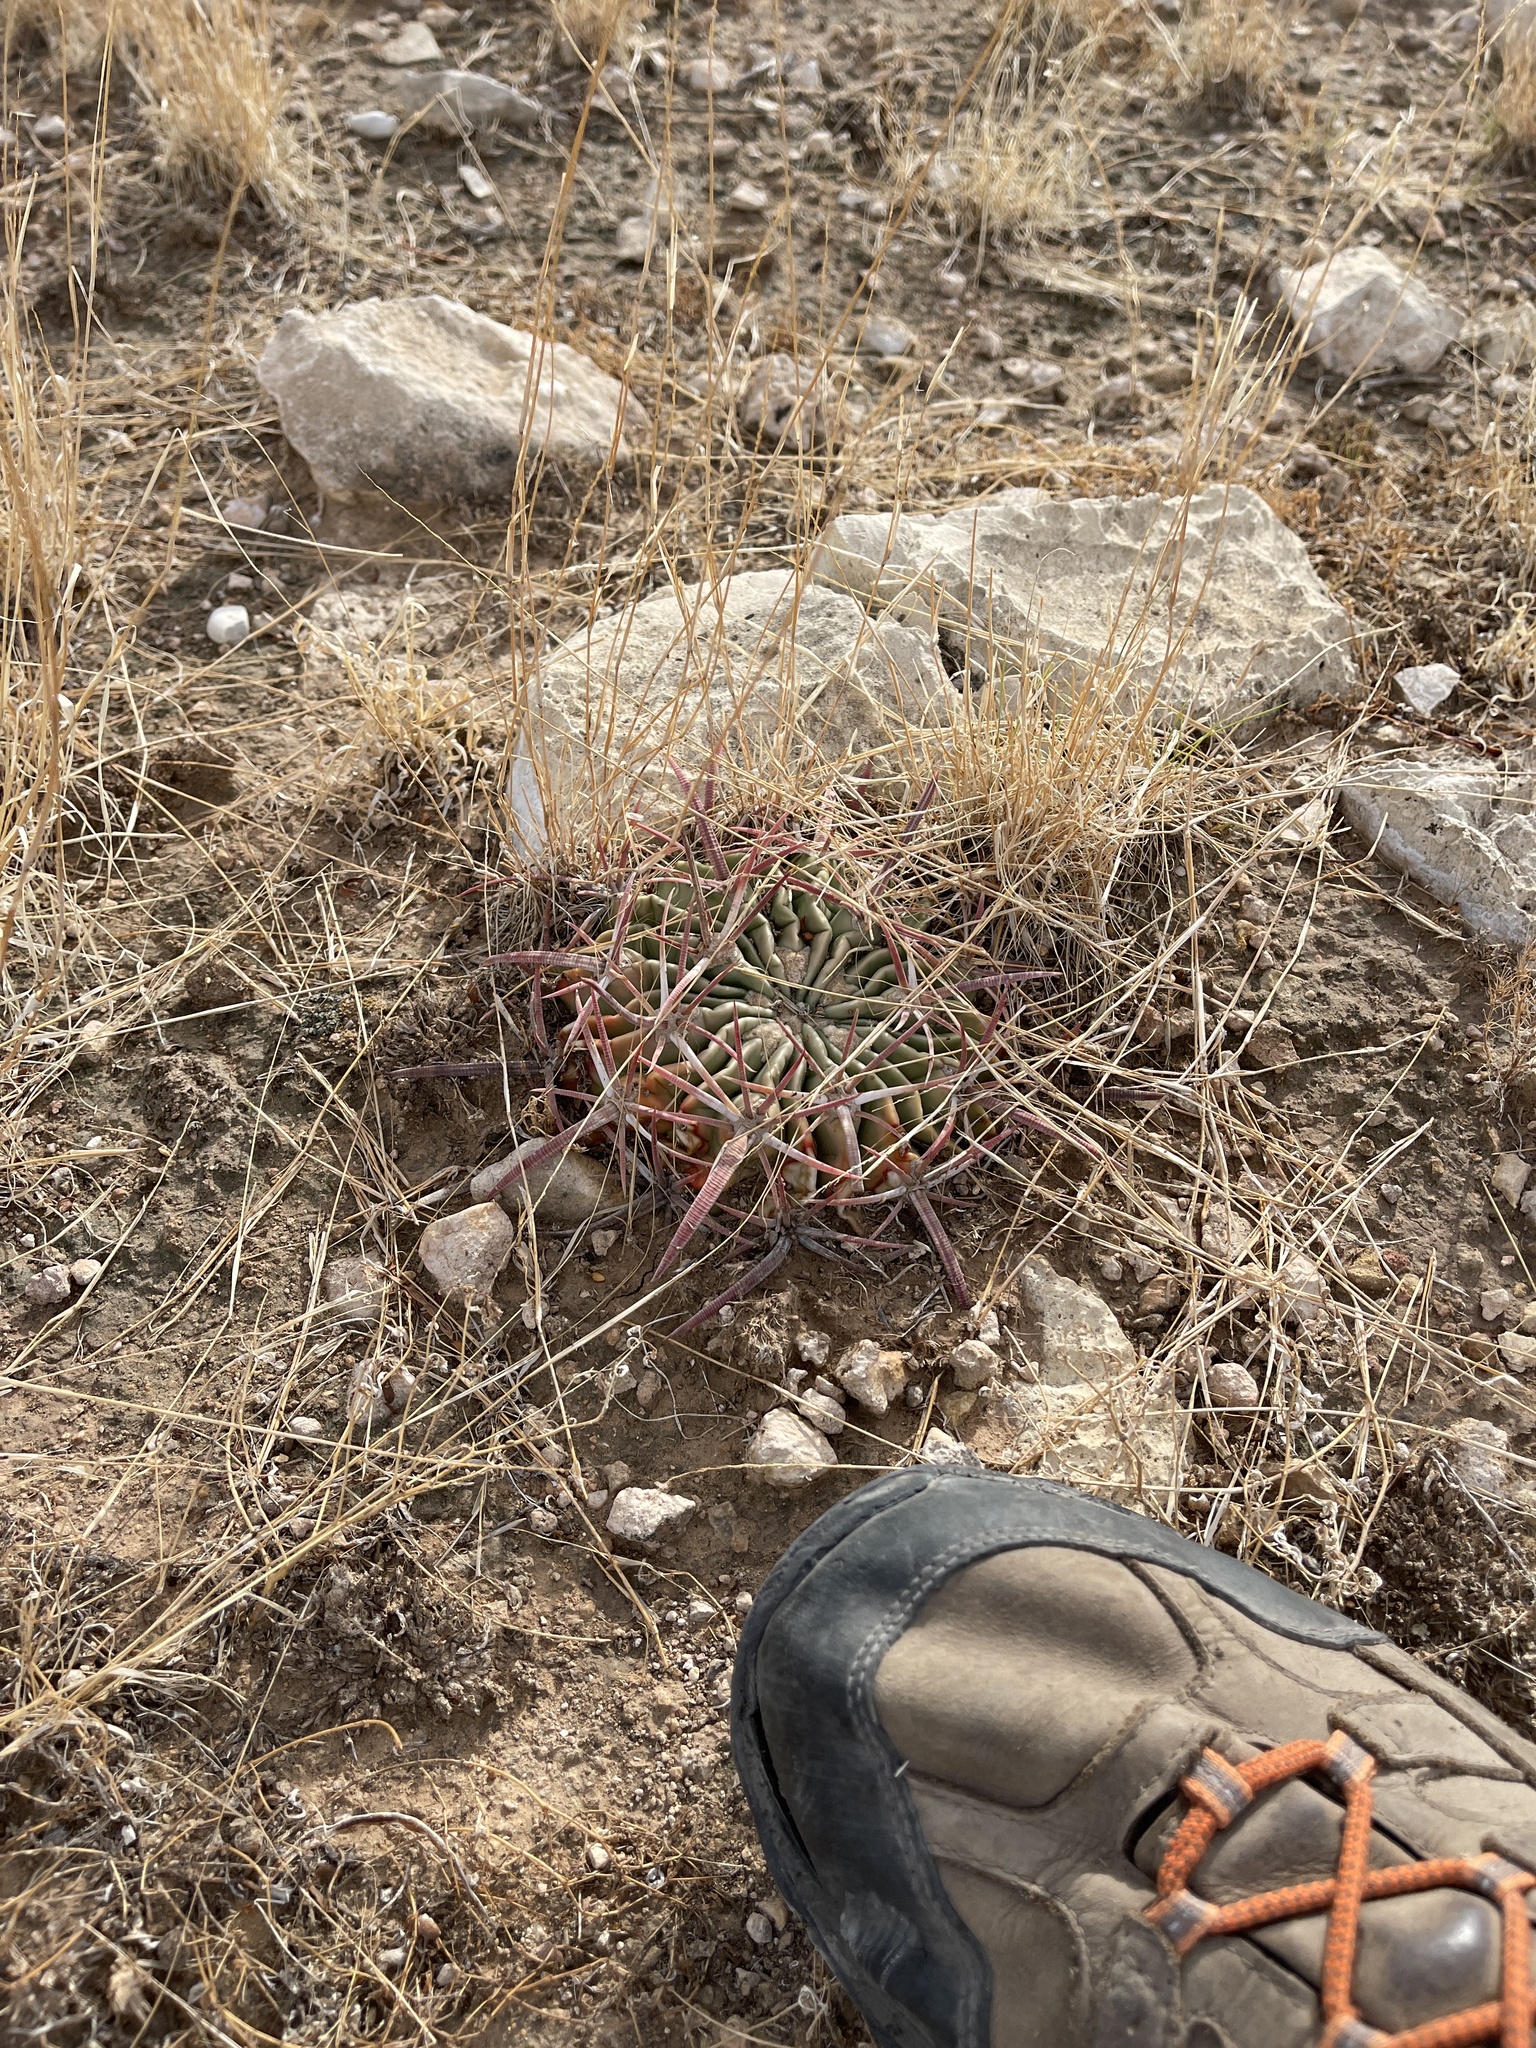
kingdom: Plantae
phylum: Tracheophyta
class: Magnoliopsida
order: Caryophyllales
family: Cactaceae
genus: Echinocactus
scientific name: Echinocactus texensis
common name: Devil's pincushion
